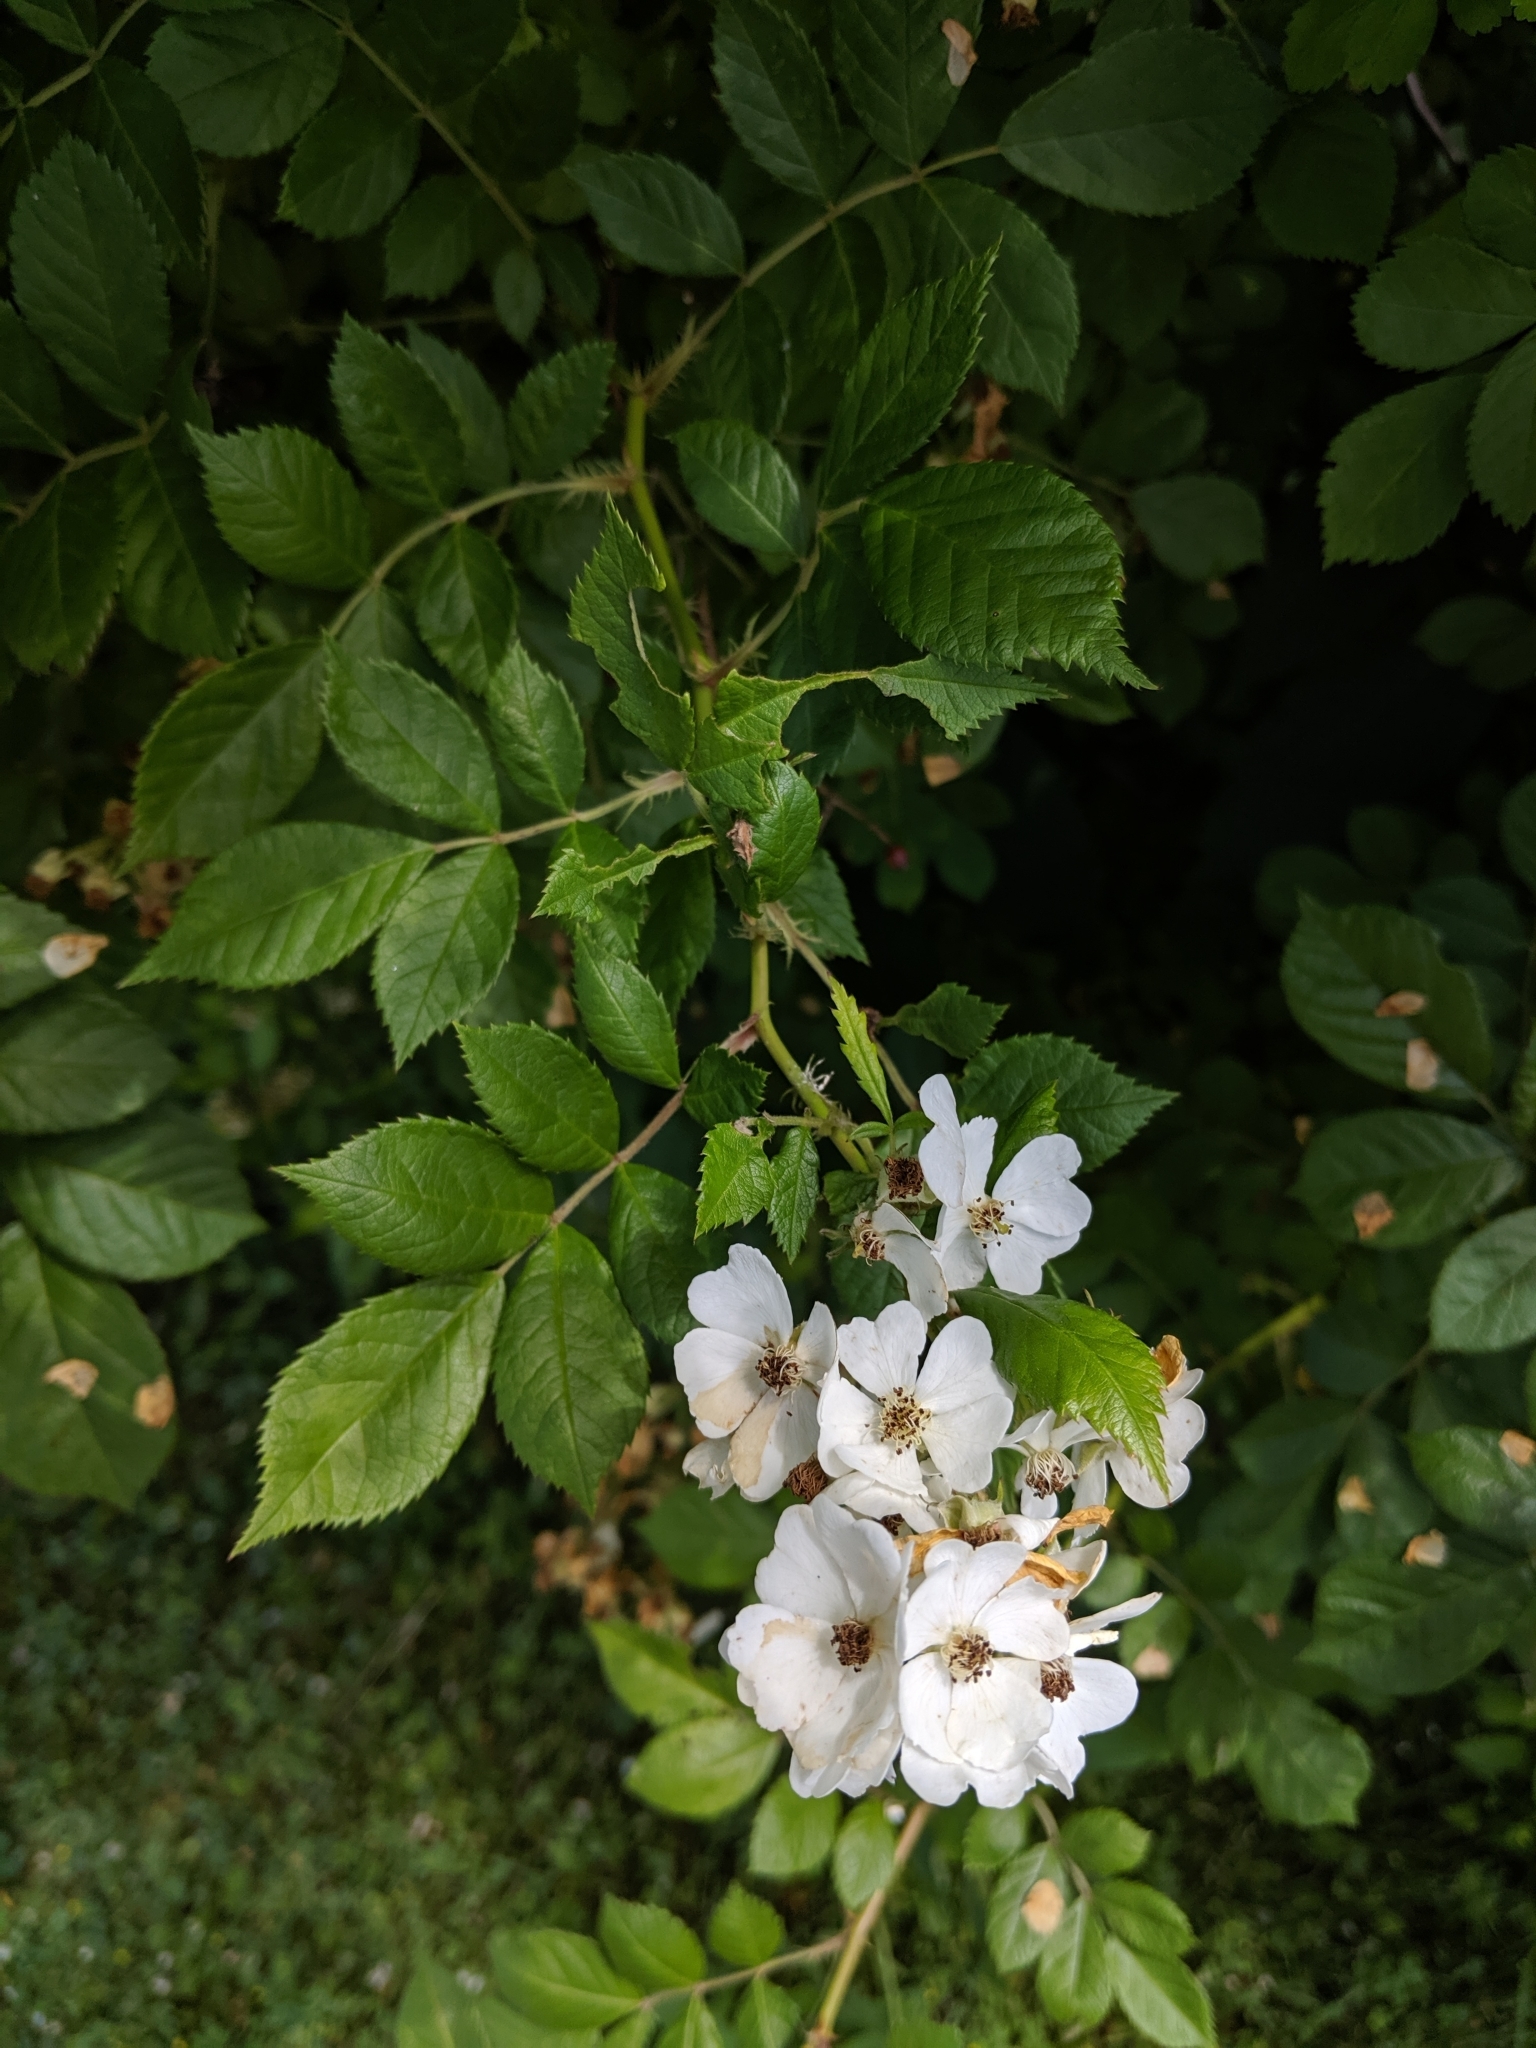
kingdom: Plantae
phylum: Tracheophyta
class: Magnoliopsida
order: Rosales
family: Rosaceae
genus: Rosa
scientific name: Rosa multiflora
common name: Multiflora rose
